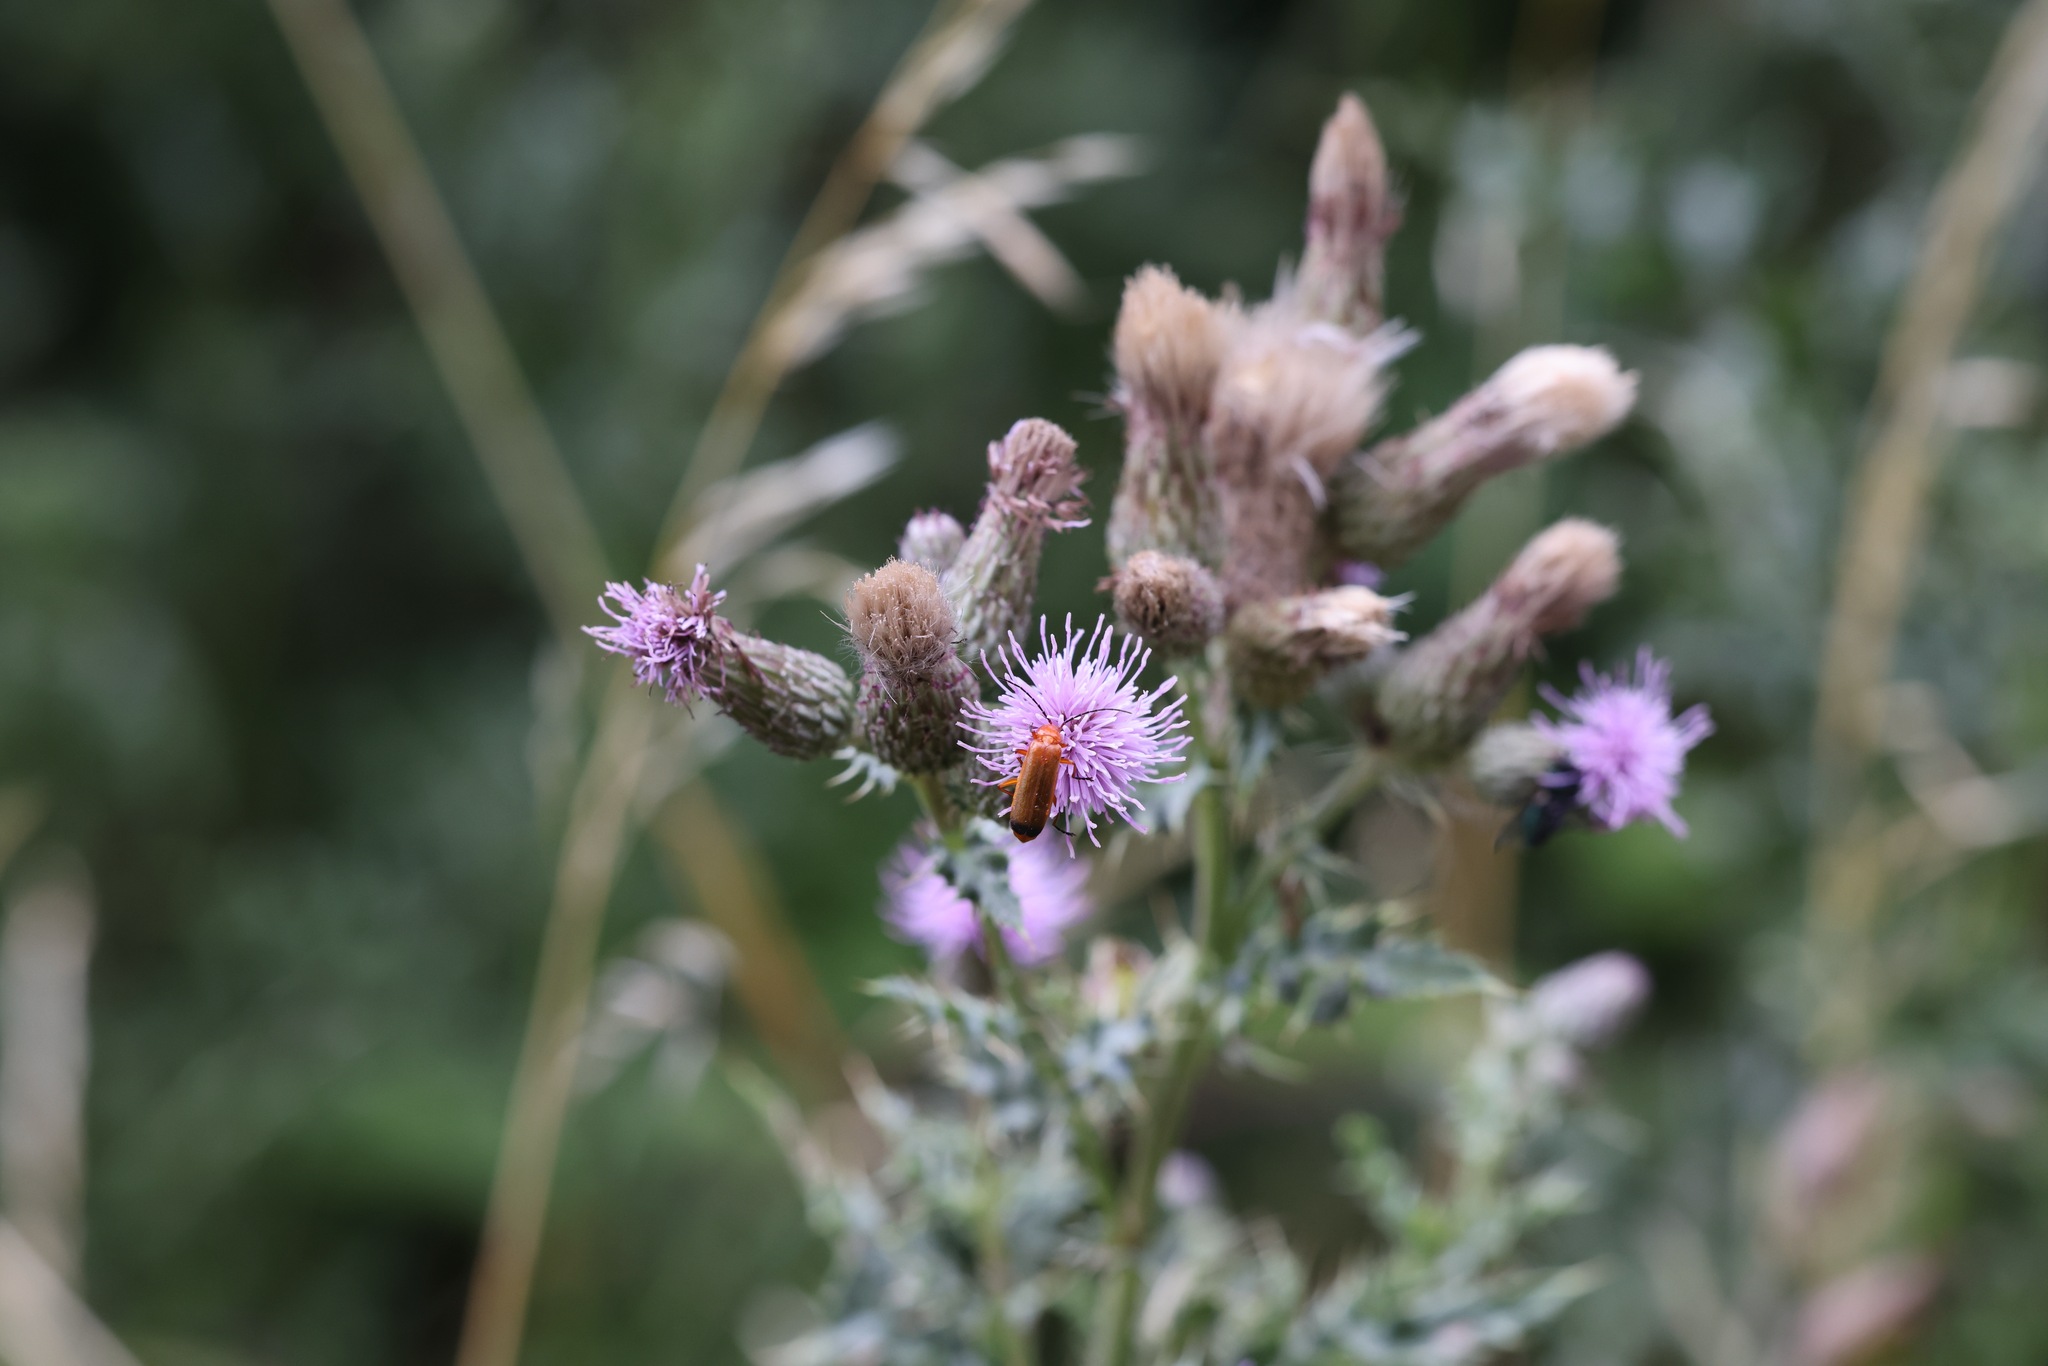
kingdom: Animalia
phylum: Arthropoda
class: Insecta
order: Coleoptera
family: Cantharidae
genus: Rhagonycha
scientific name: Rhagonycha fulva
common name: Common red soldier beetle
